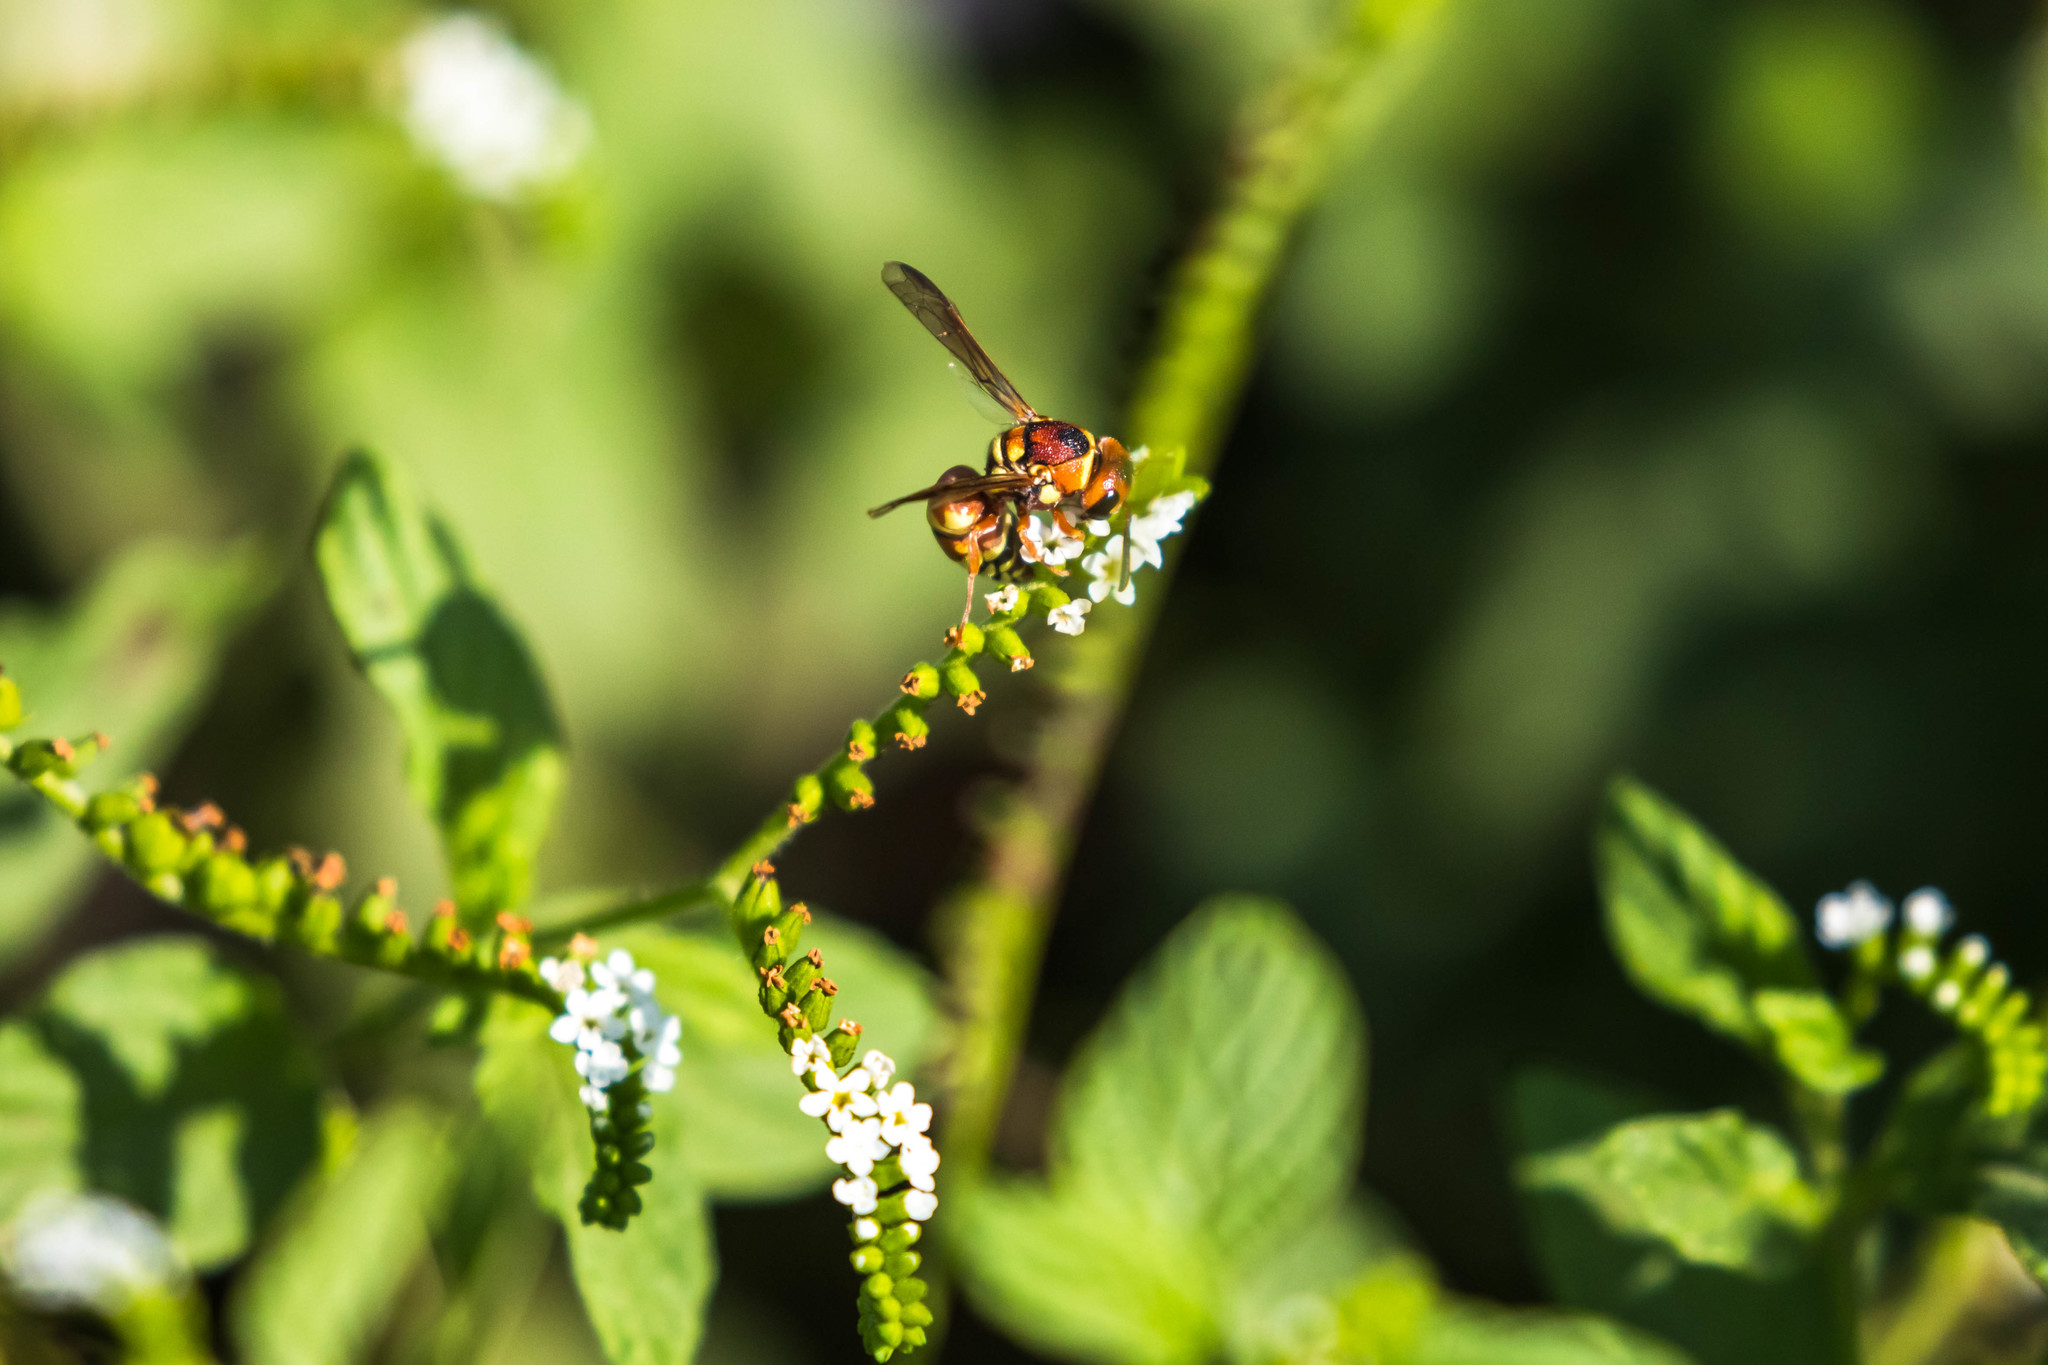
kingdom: Animalia
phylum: Arthropoda
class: Insecta
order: Hymenoptera
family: Eumenidae
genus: Euodynerus
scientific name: Euodynerus annulatus
